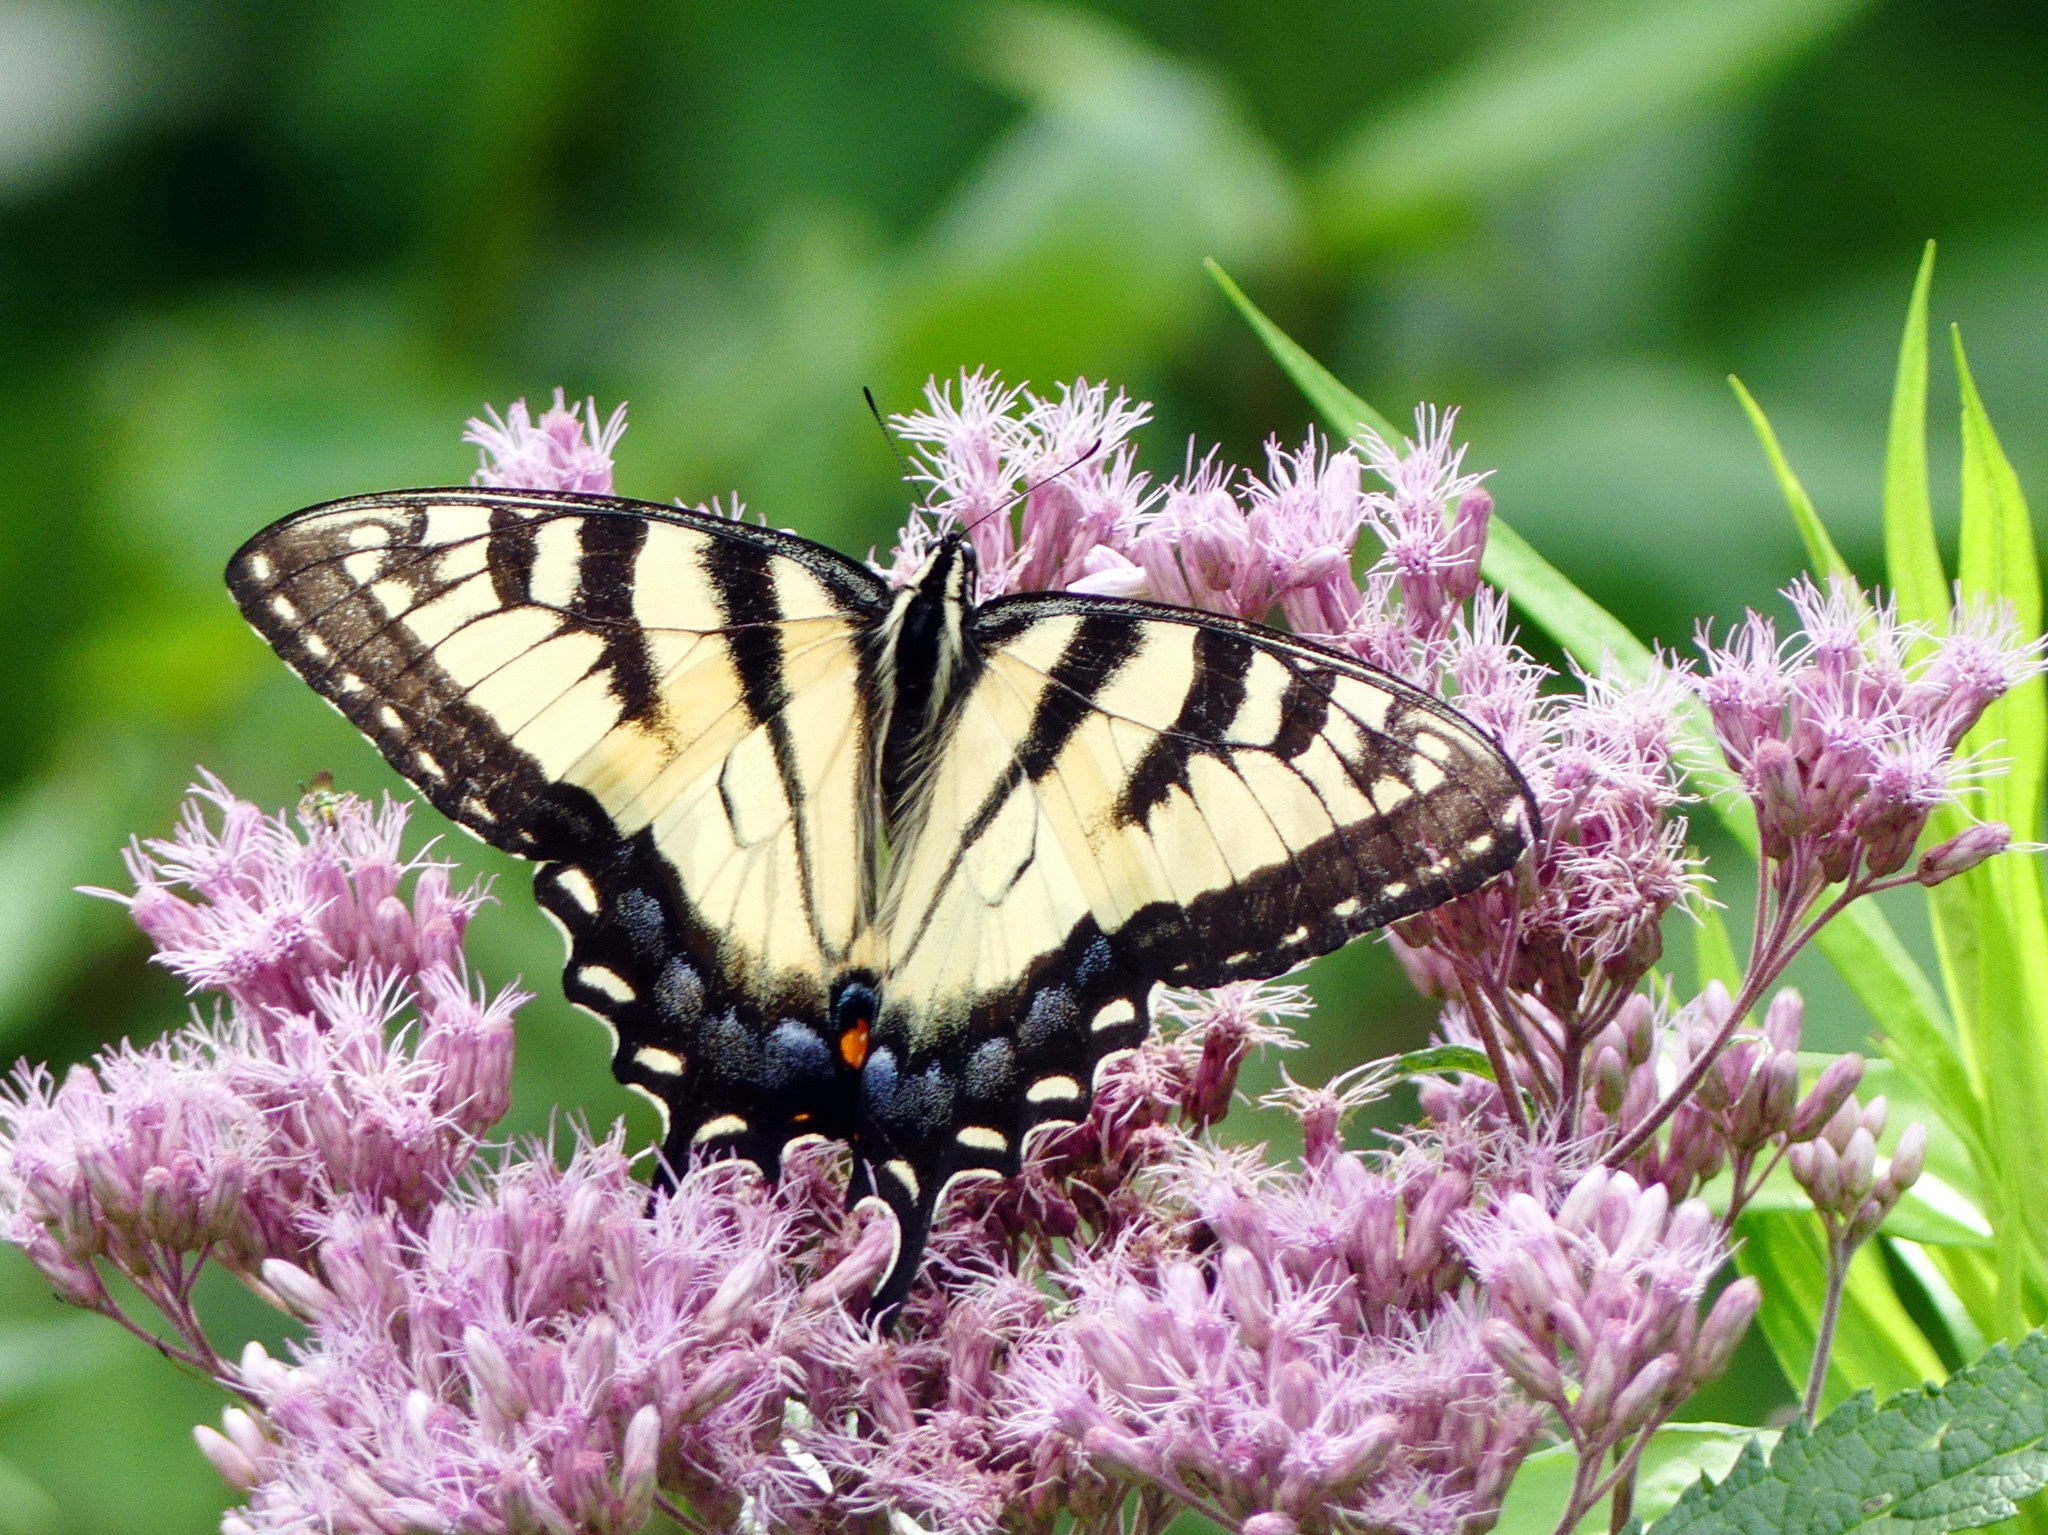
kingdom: Animalia
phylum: Arthropoda
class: Insecta
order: Lepidoptera
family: Papilionidae
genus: Papilio
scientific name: Papilio
